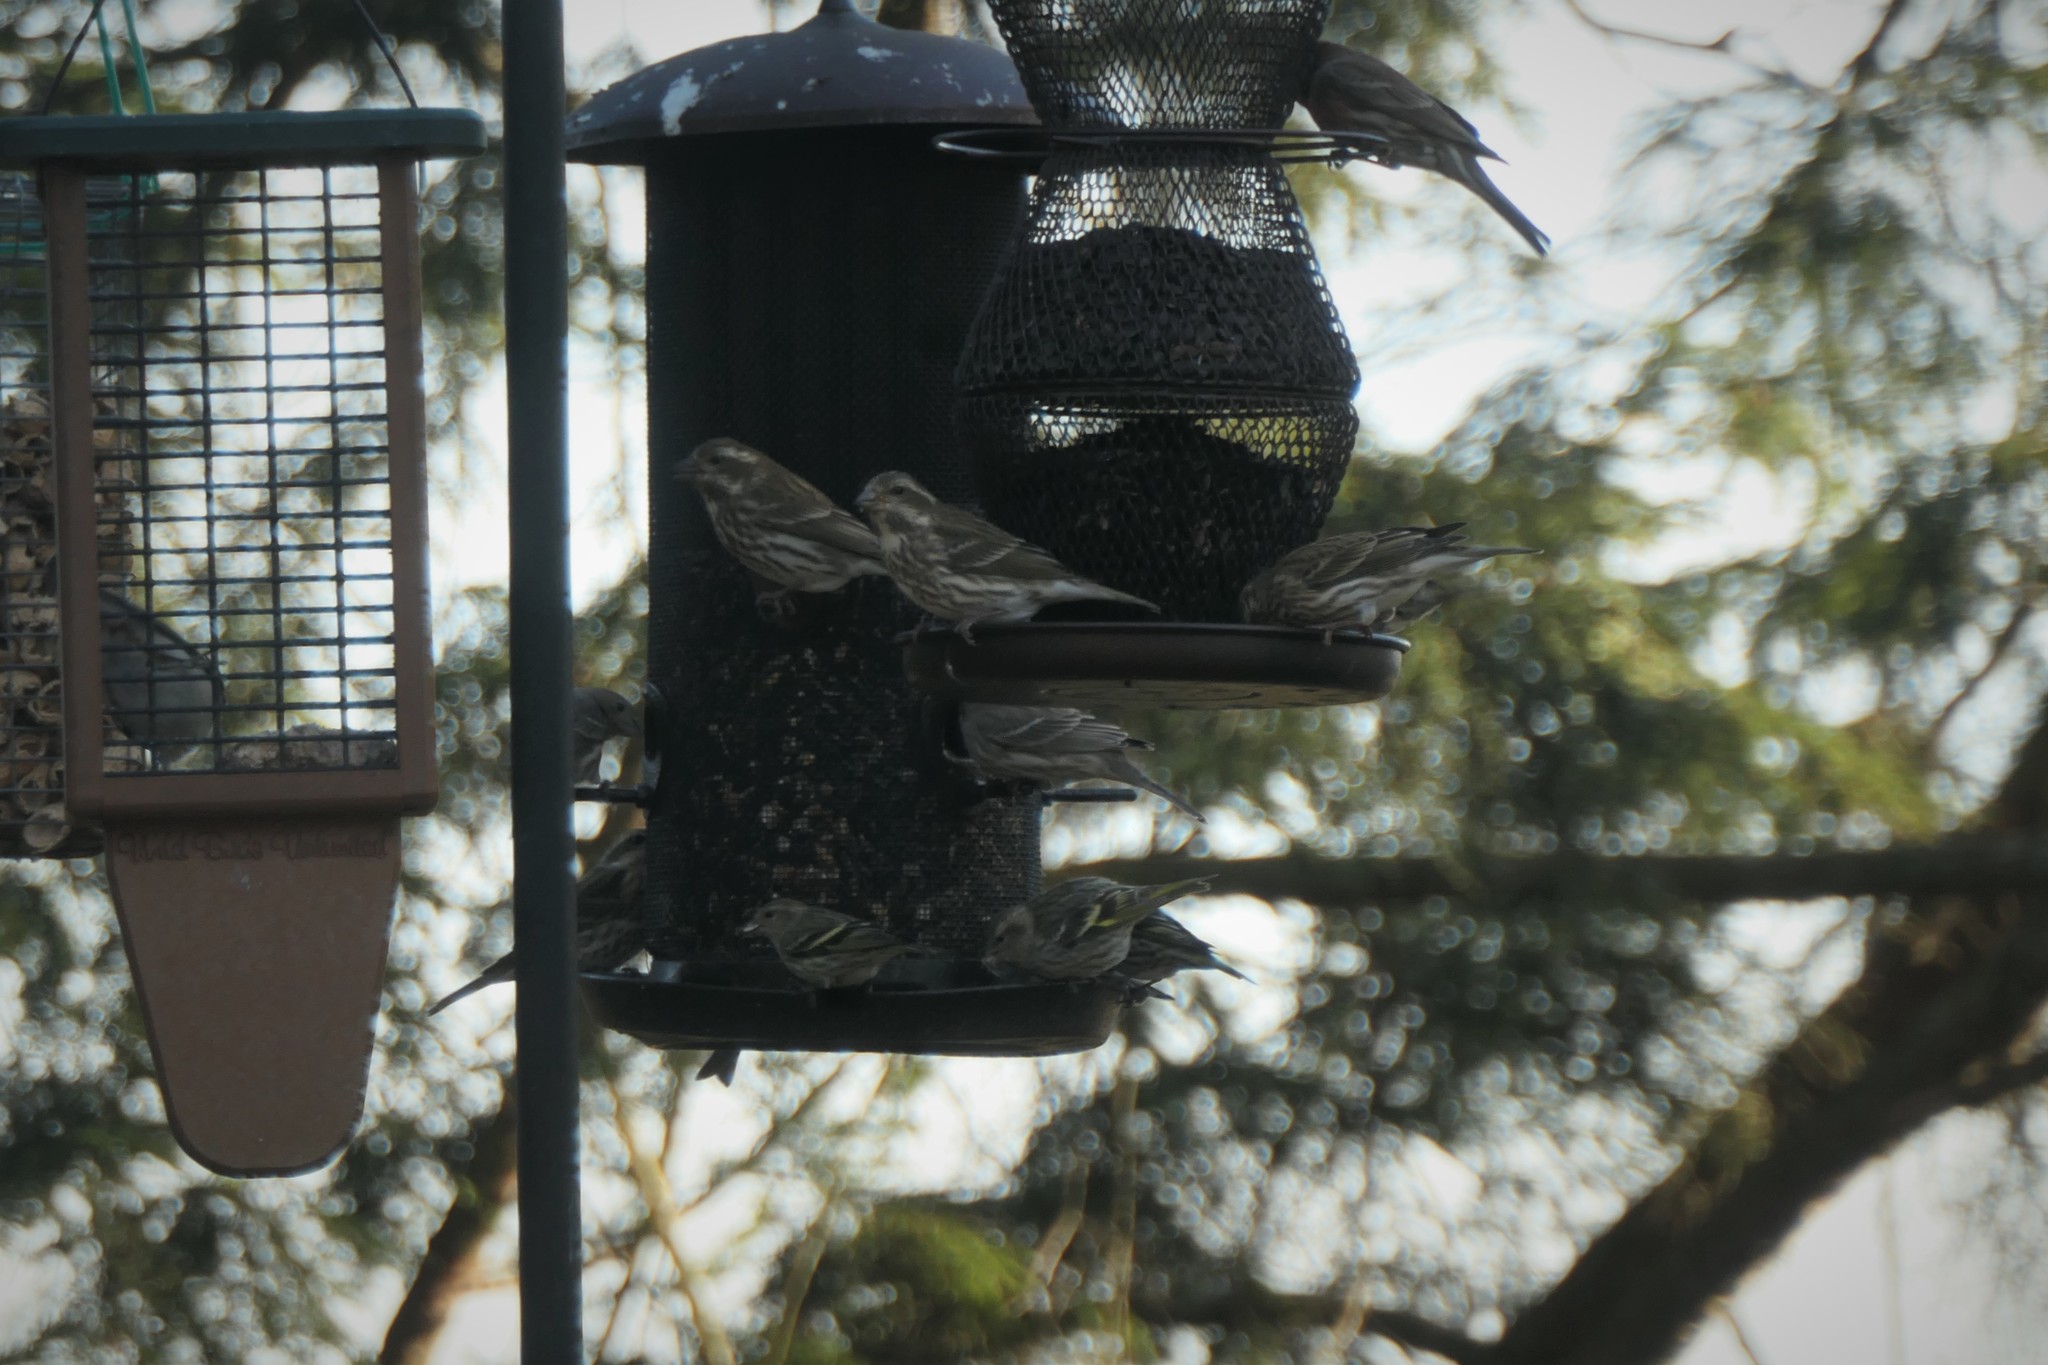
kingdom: Animalia
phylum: Chordata
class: Aves
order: Passeriformes
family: Fringillidae
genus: Haemorhous
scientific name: Haemorhous purpureus
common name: Purple finch
